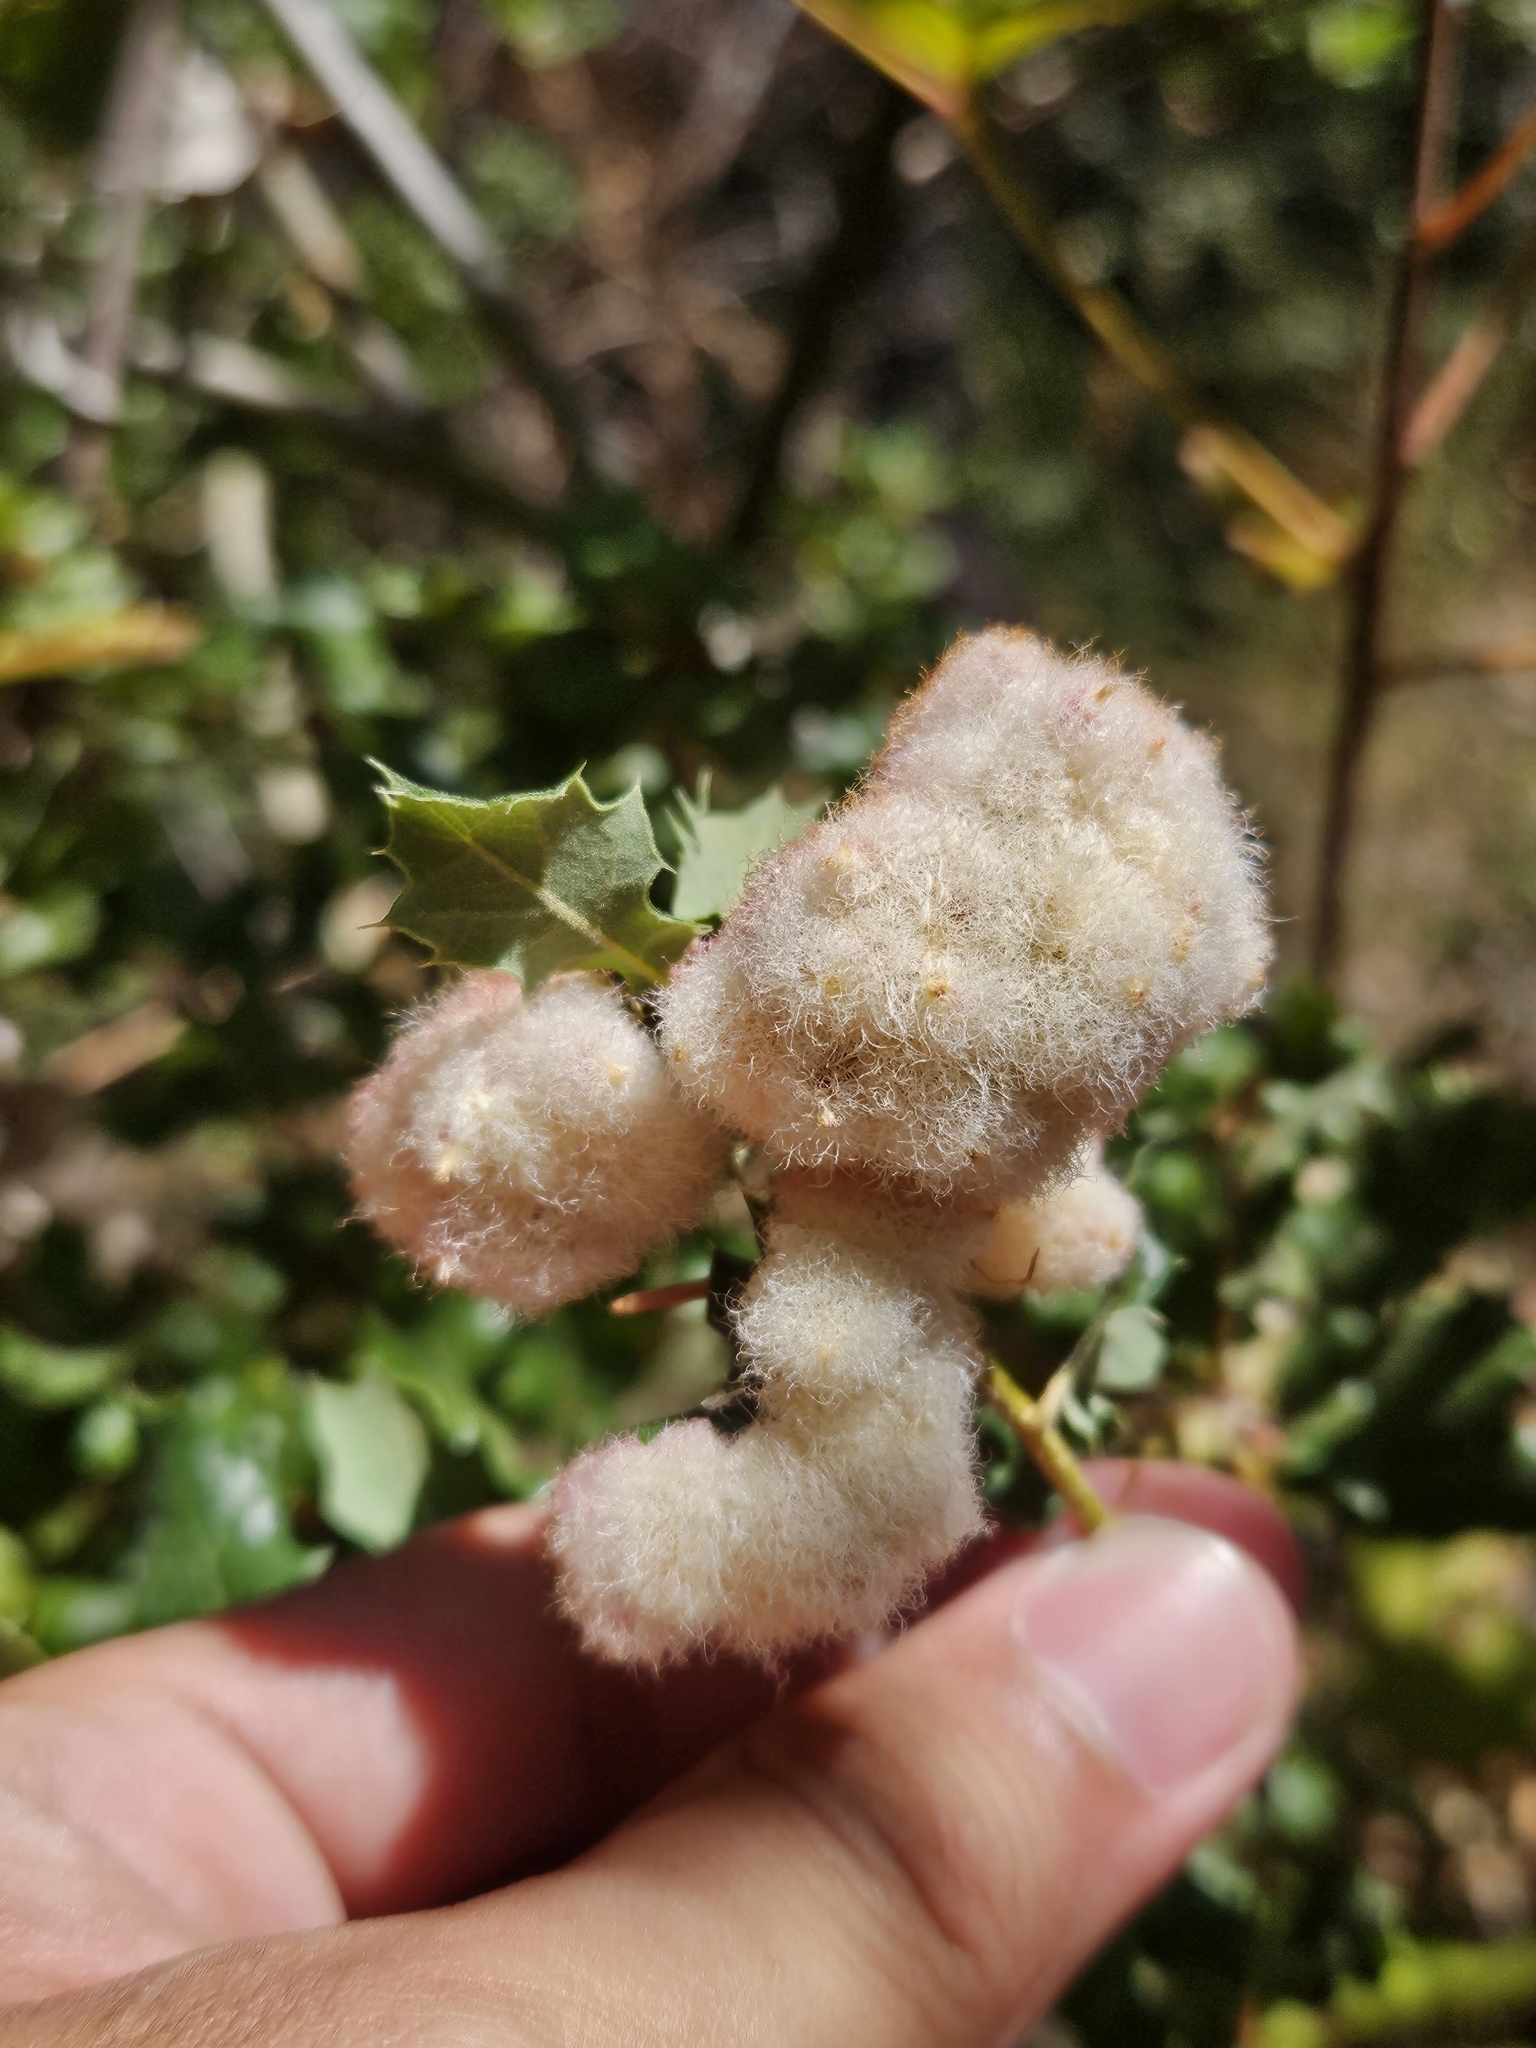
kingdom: Animalia
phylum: Arthropoda
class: Insecta
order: Hymenoptera
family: Cynipidae
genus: Andricus
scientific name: Andricus
